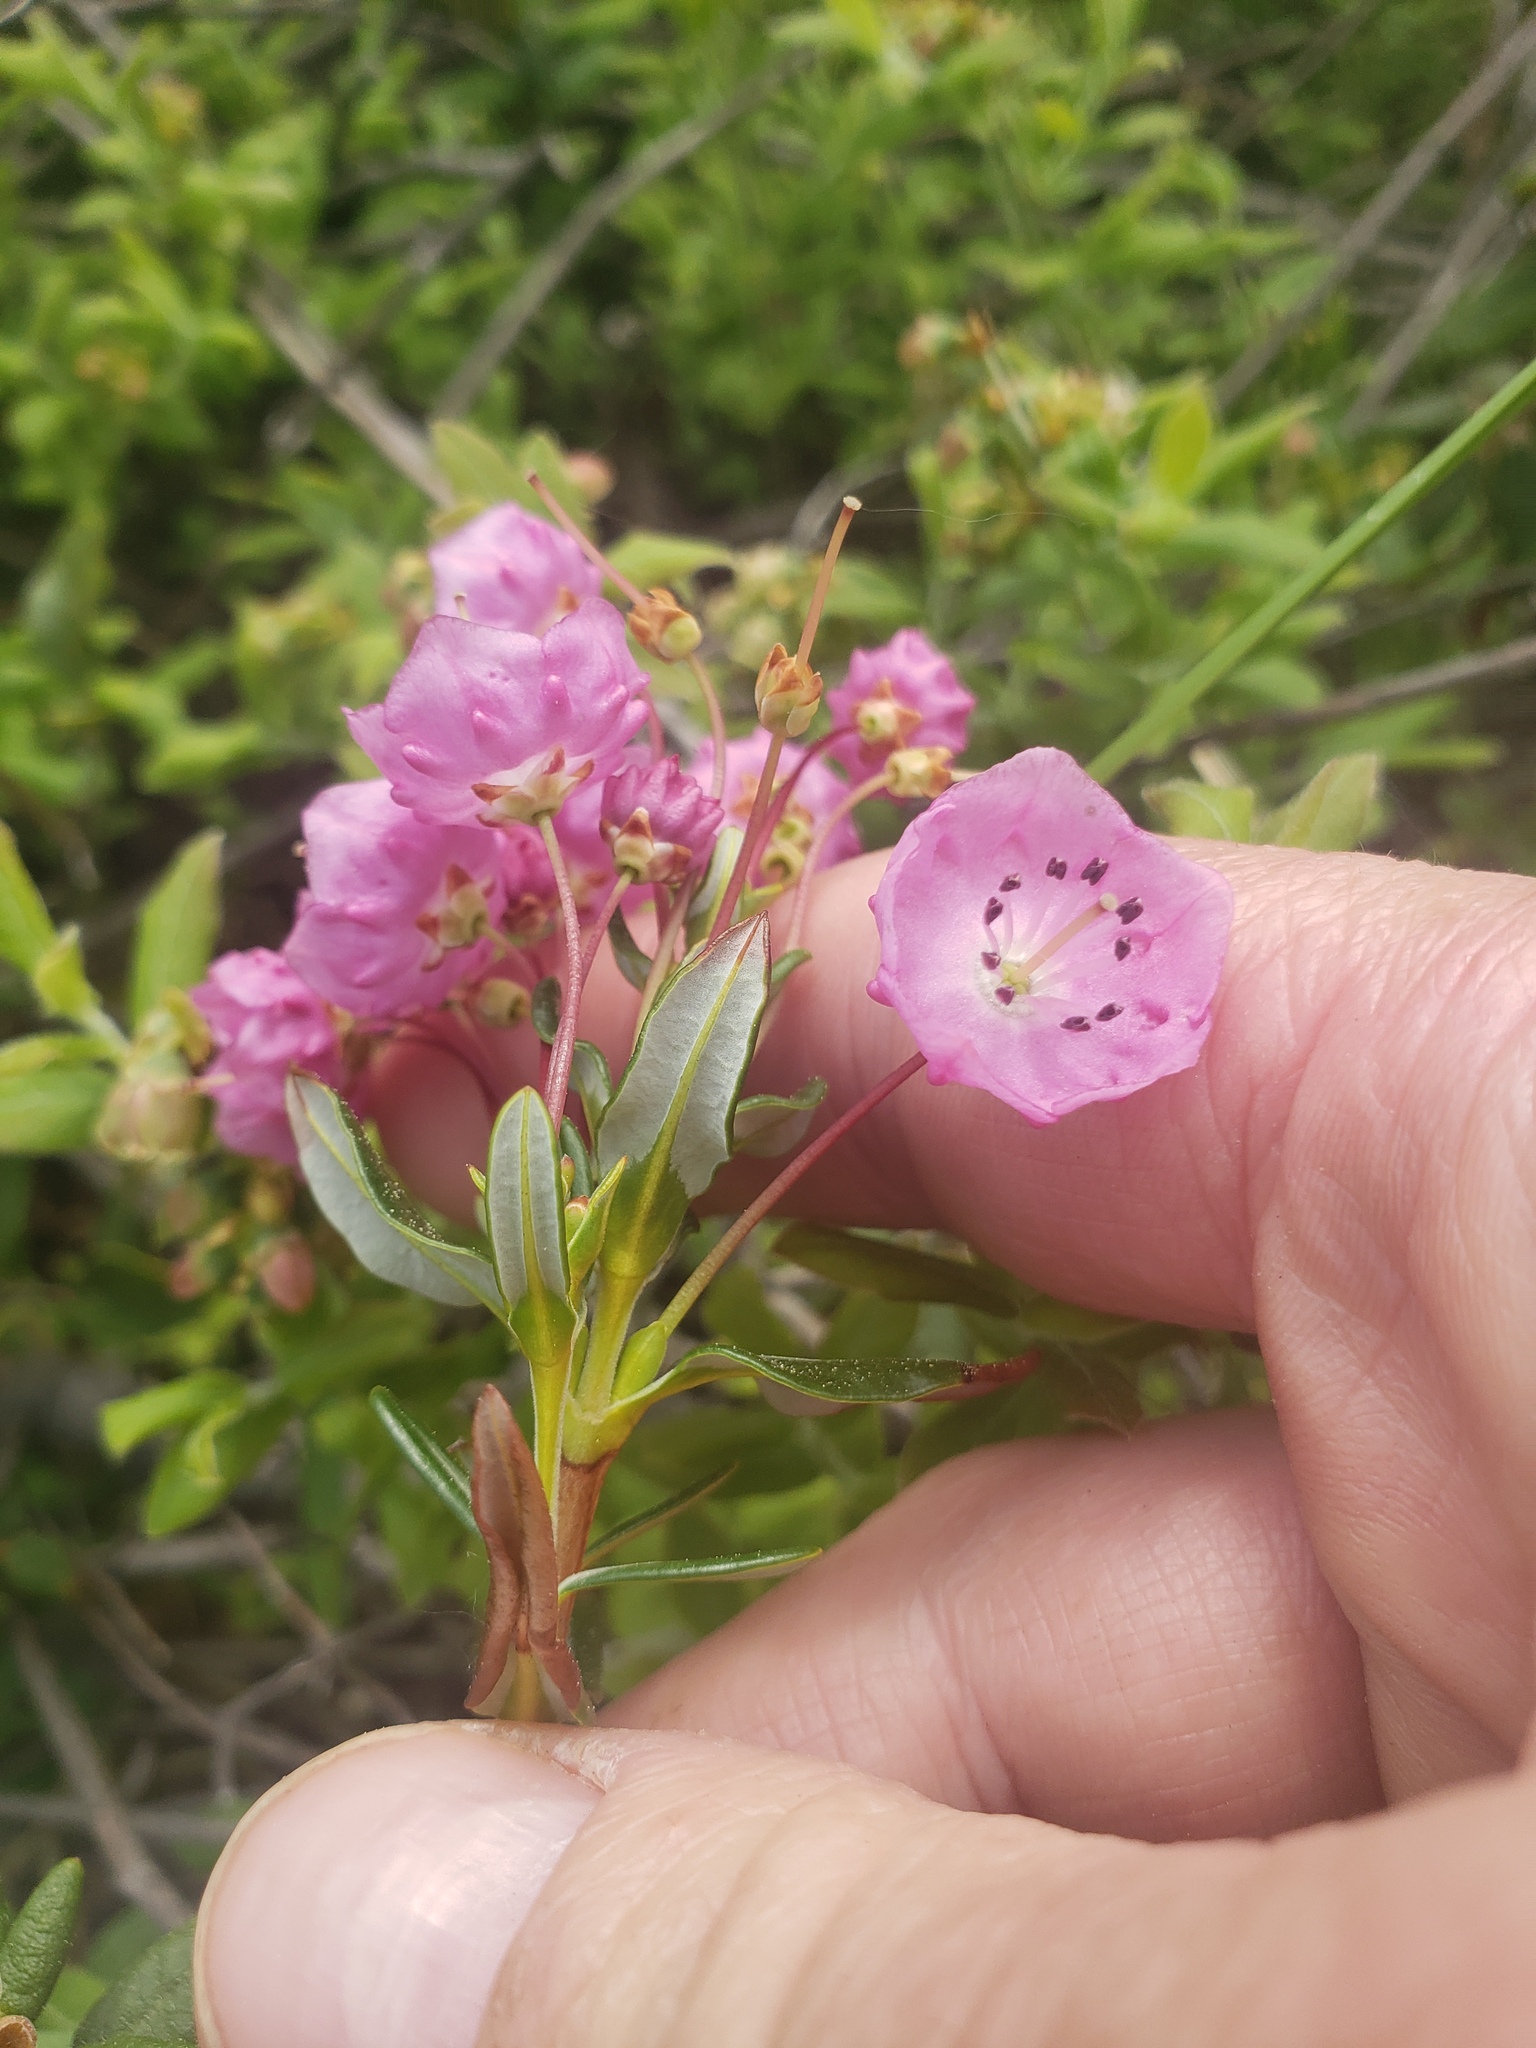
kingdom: Plantae
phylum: Tracheophyta
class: Magnoliopsida
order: Ericales
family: Ericaceae
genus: Kalmia
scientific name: Kalmia polifolia
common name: Bog-laurel
